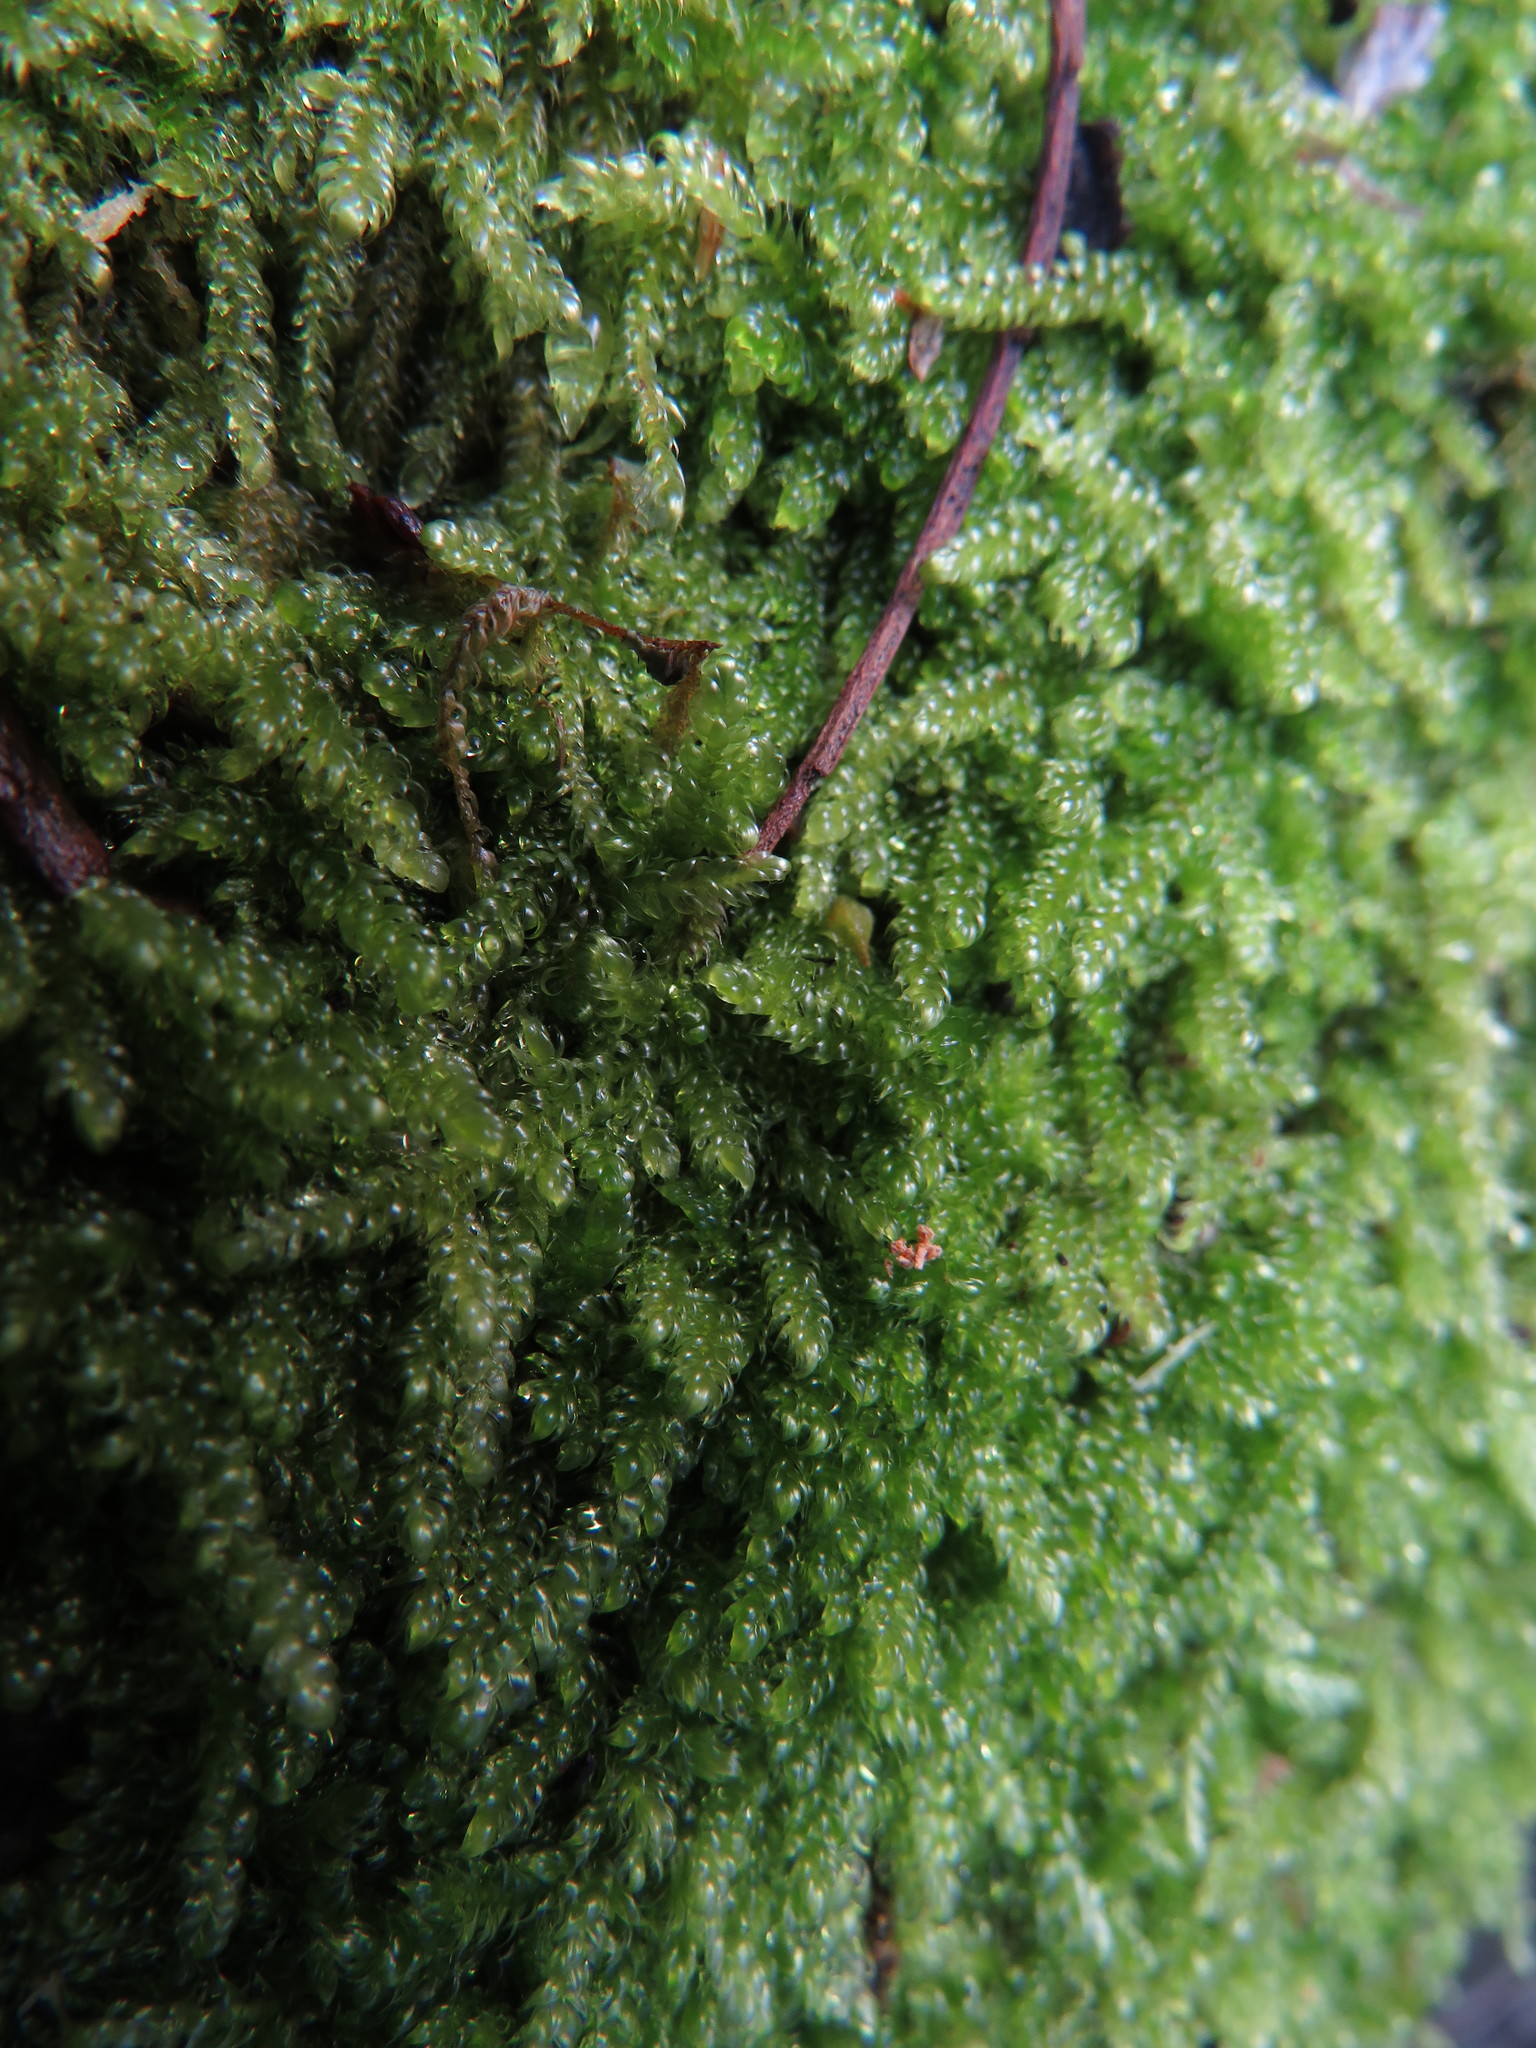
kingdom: Plantae
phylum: Bryophyta
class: Bryopsida
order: Hypnales
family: Hypnaceae
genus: Hypnum
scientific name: Hypnum cupressiforme
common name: Cypress-leaved plait-moss
